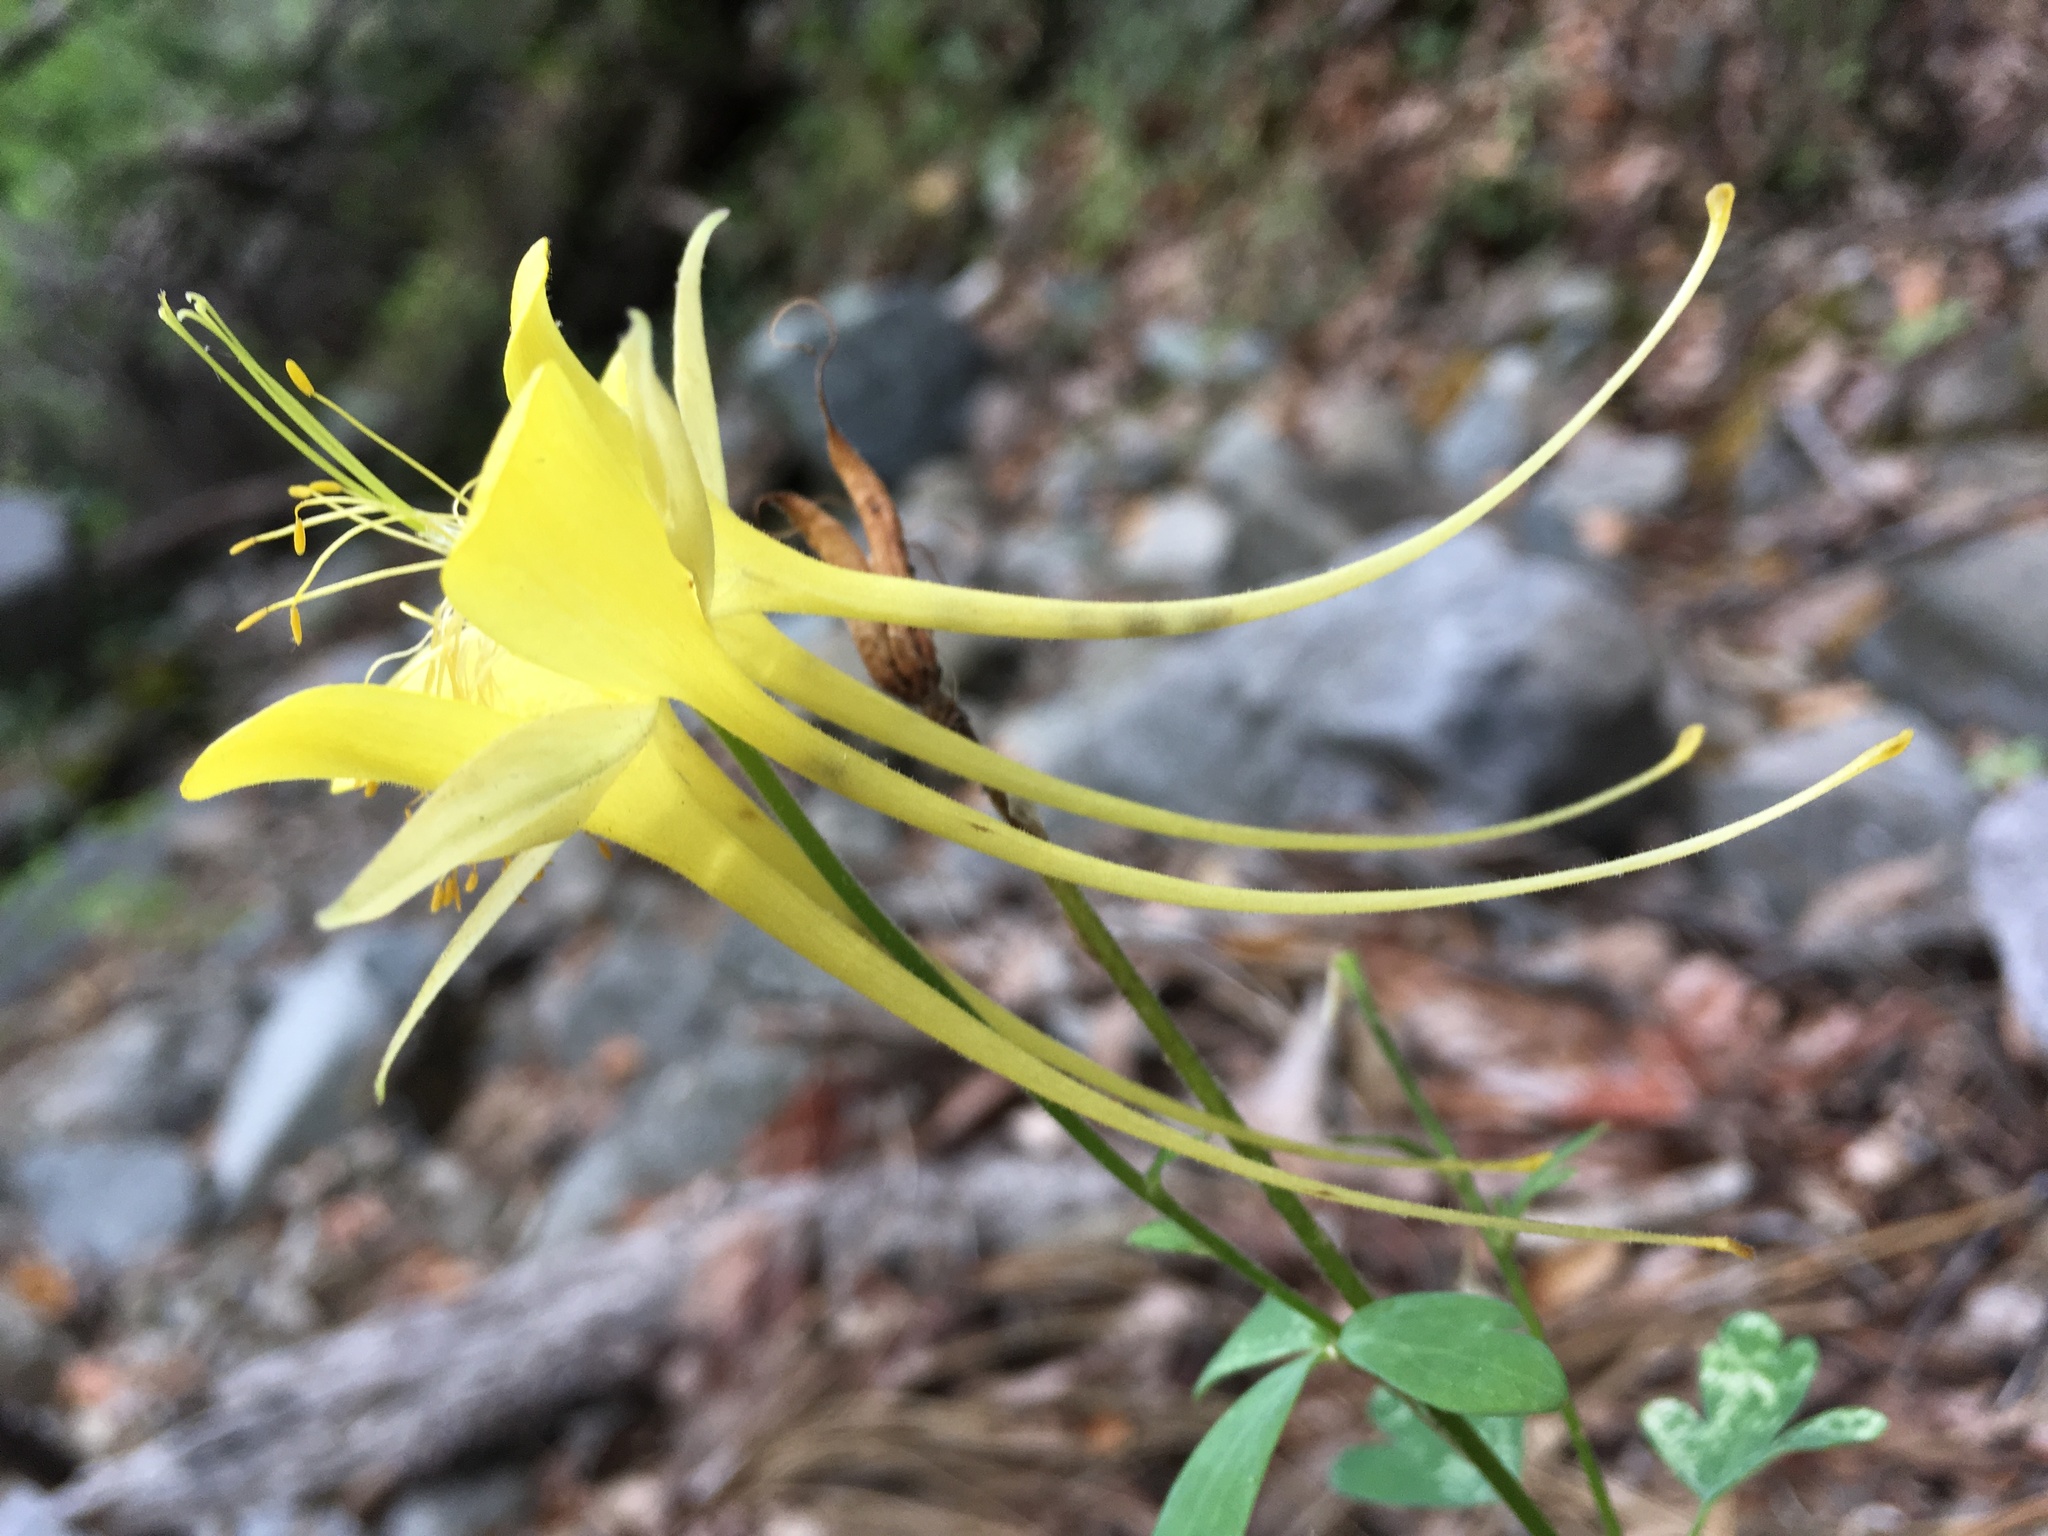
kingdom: Plantae
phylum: Tracheophyta
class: Magnoliopsida
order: Ranunculales
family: Ranunculaceae
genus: Aquilegia
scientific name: Aquilegia chrysantha
